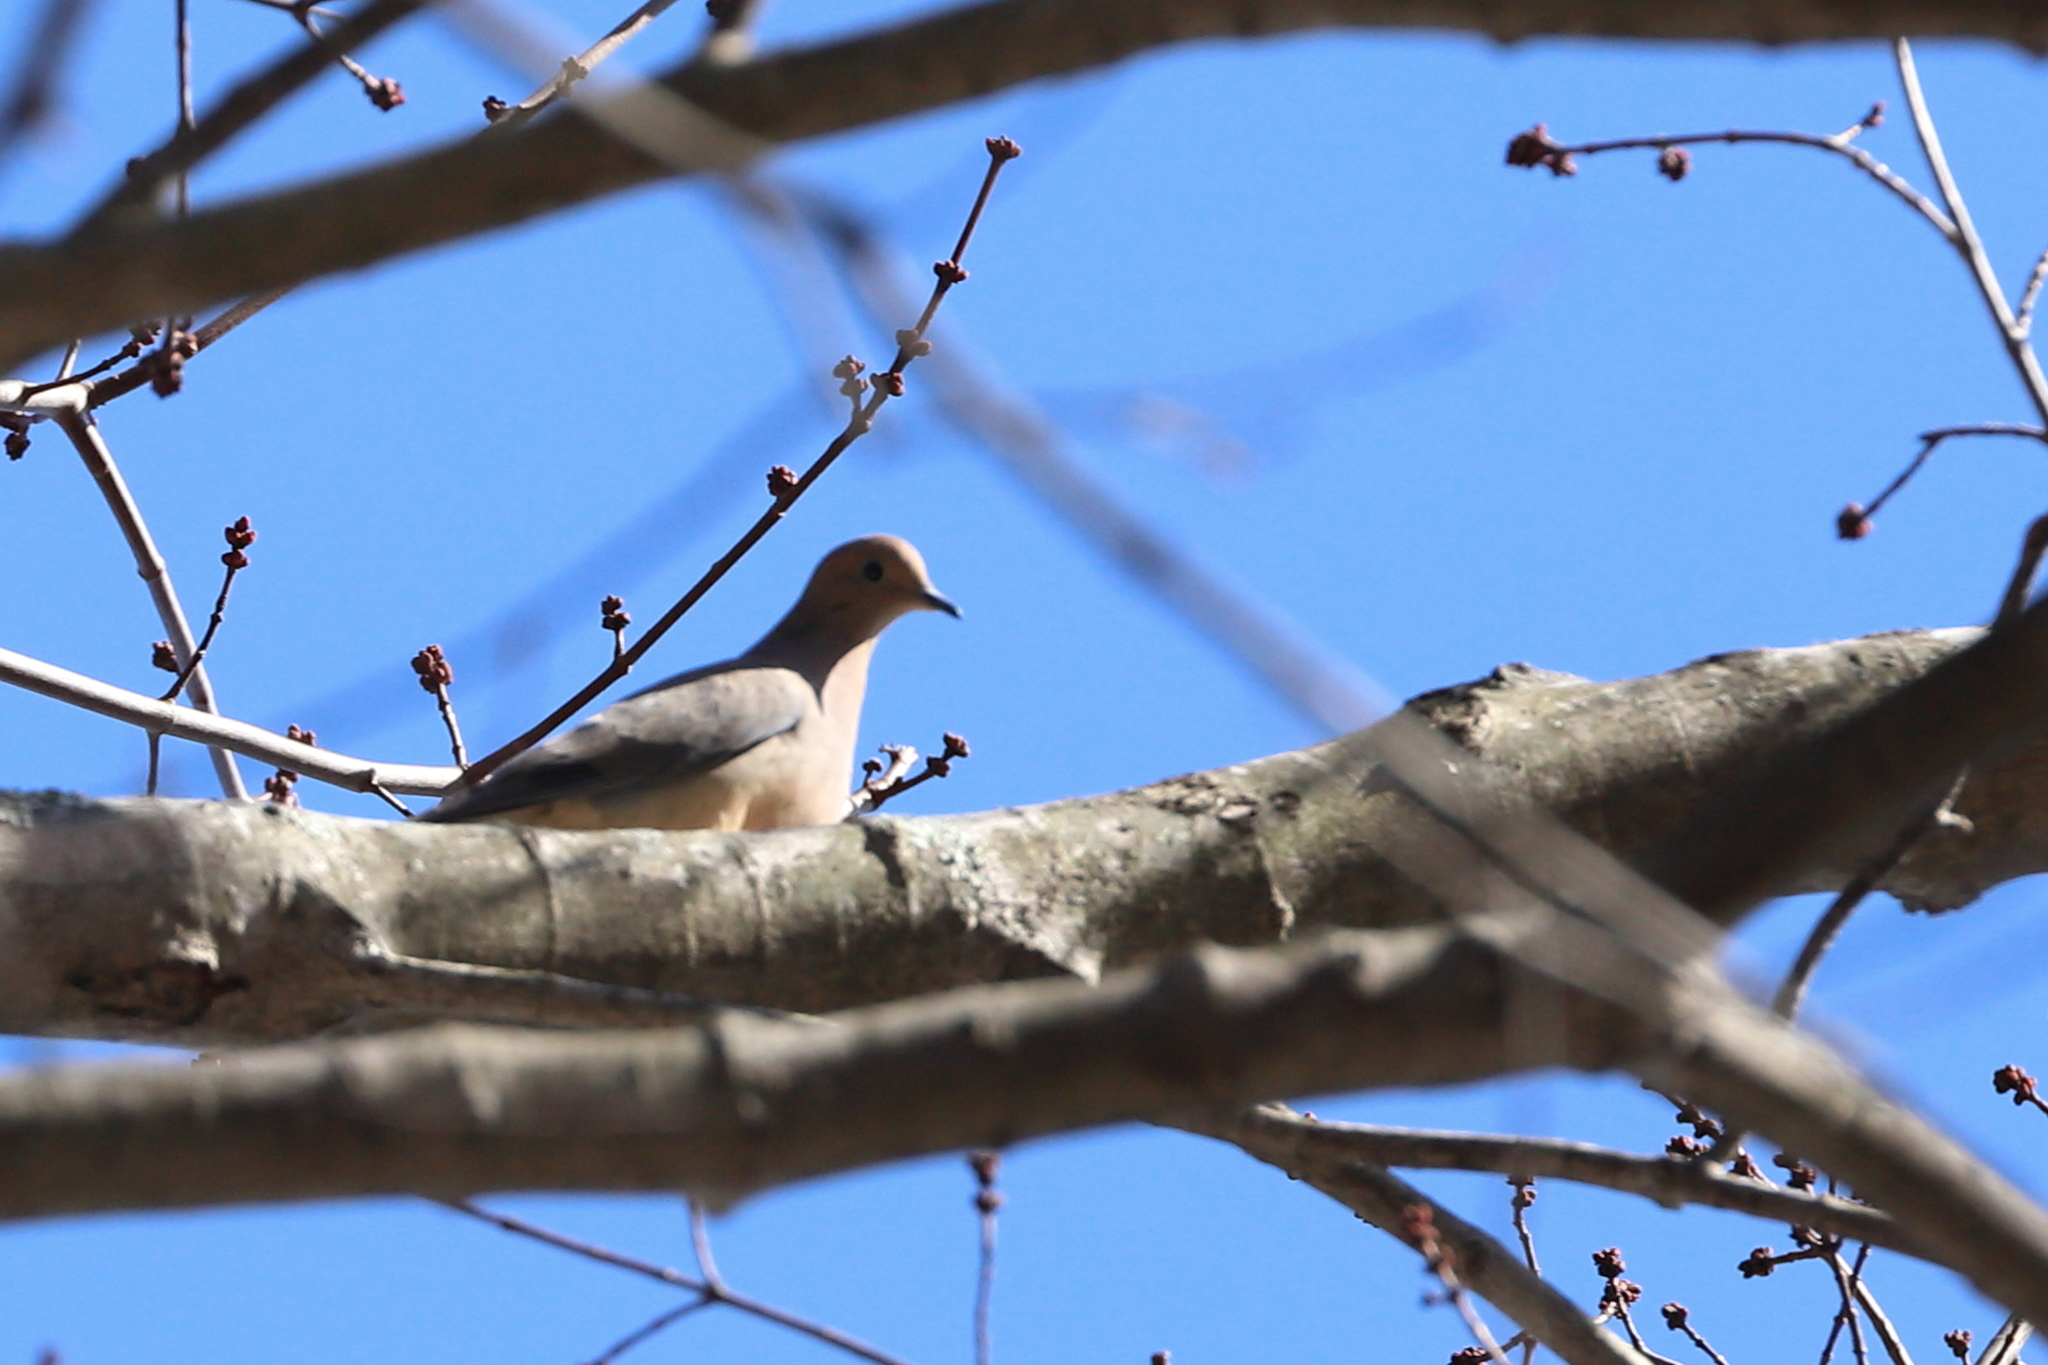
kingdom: Animalia
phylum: Chordata
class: Aves
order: Columbiformes
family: Columbidae
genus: Zenaida
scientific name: Zenaida macroura
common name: Mourning dove
